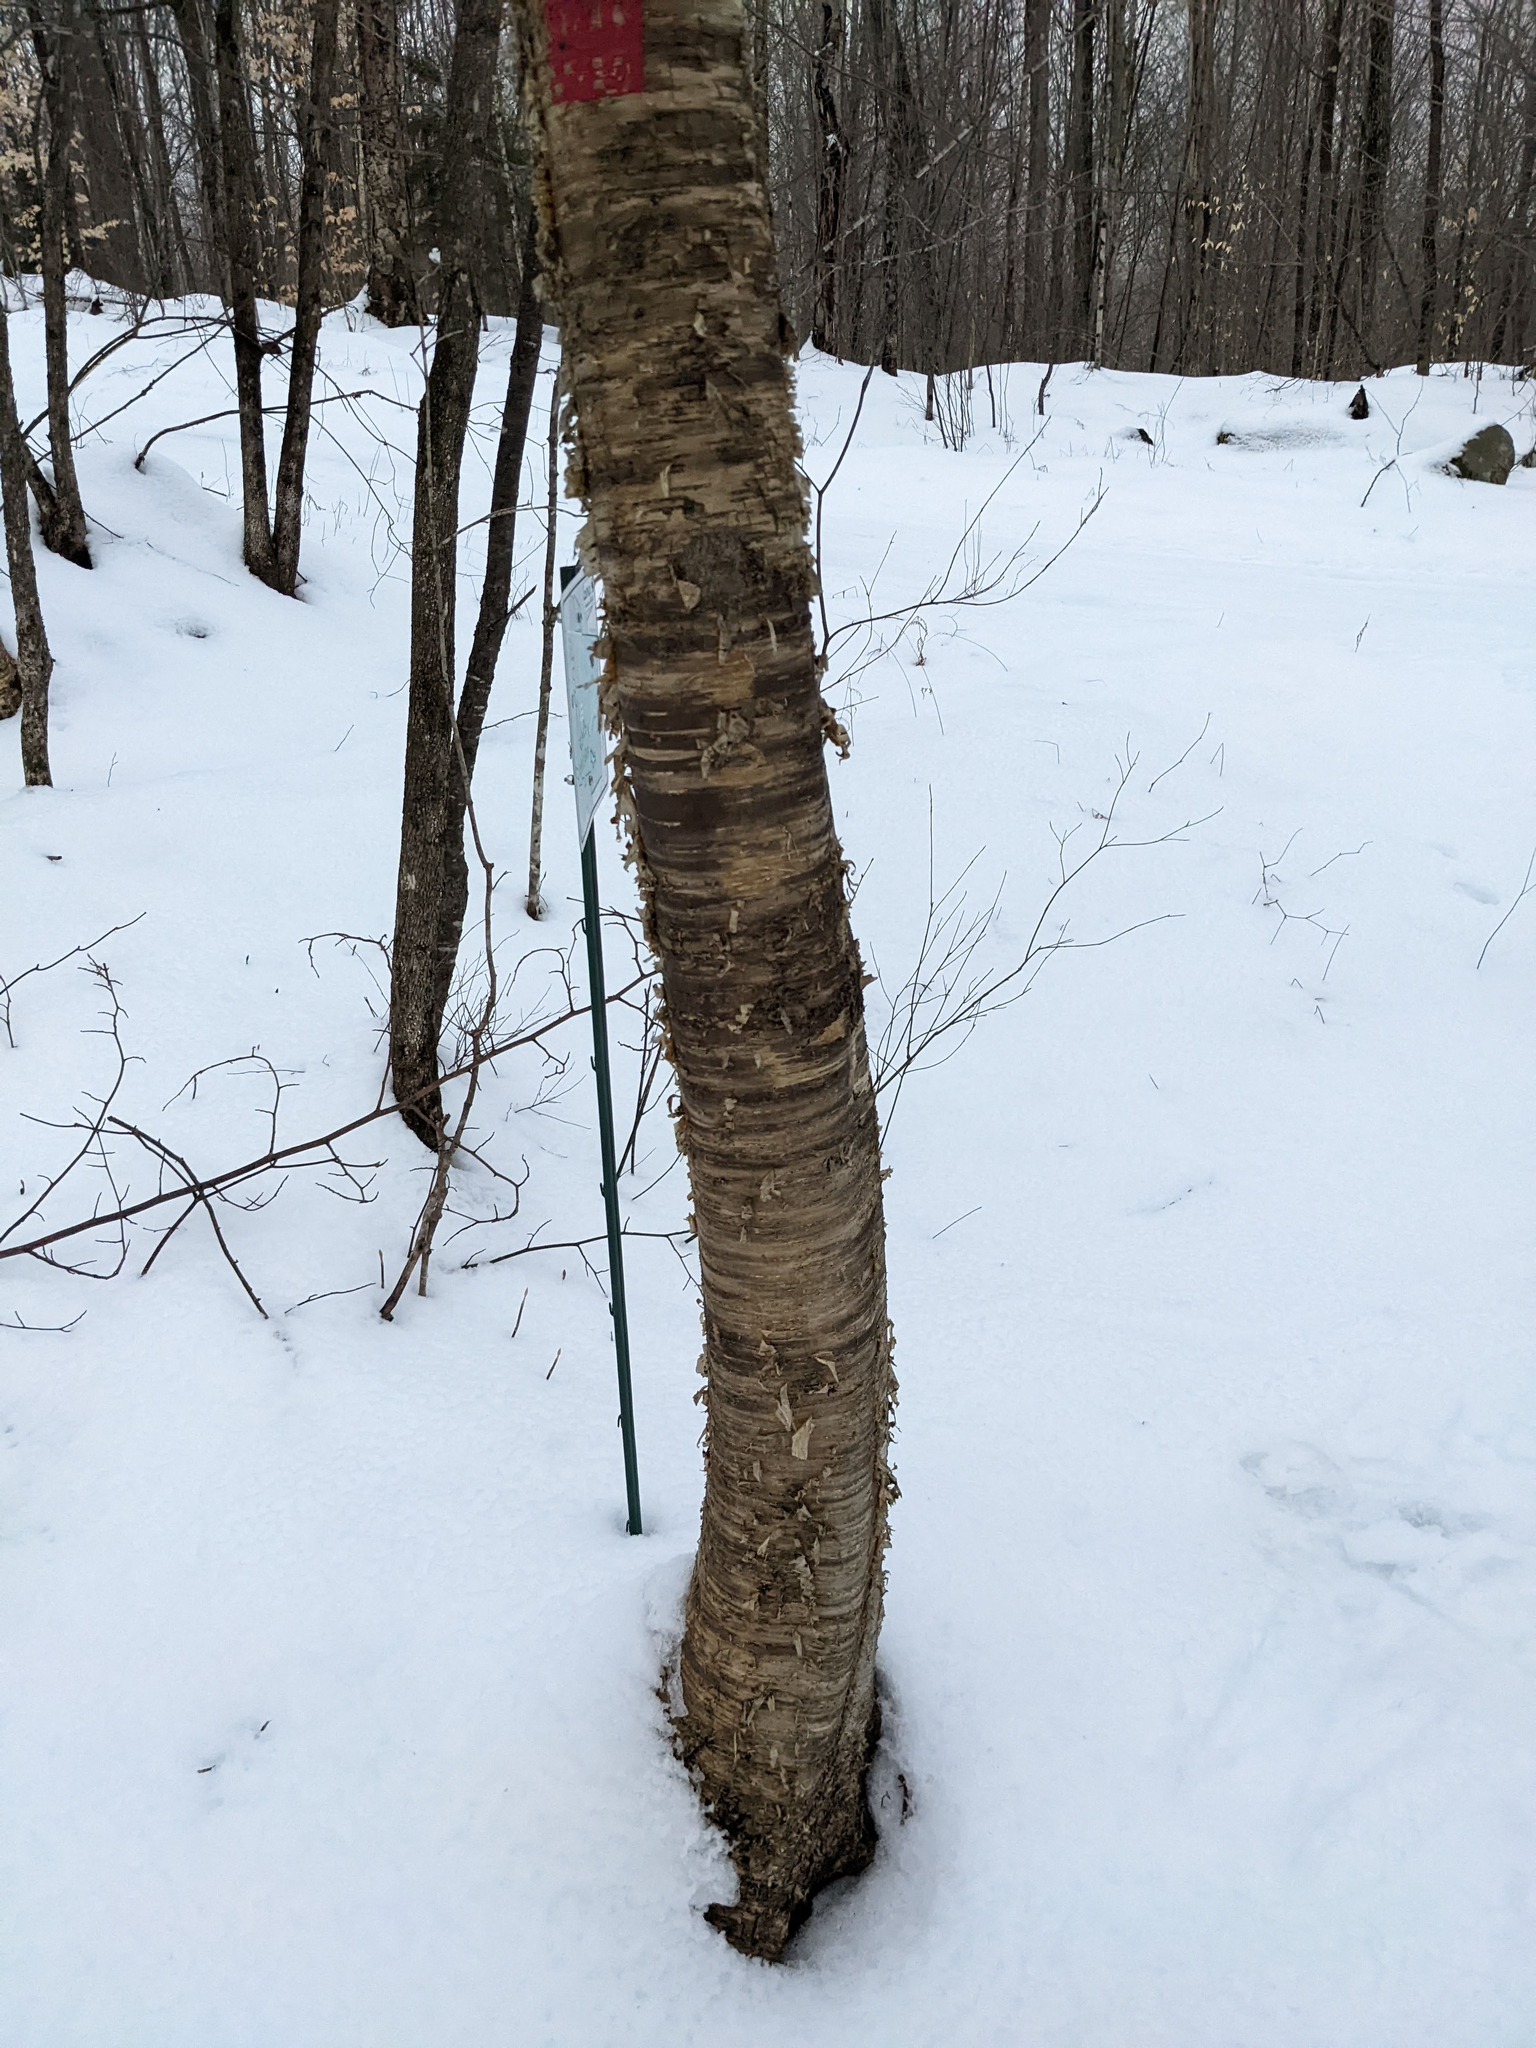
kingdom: Plantae
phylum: Tracheophyta
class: Magnoliopsida
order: Fagales
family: Betulaceae
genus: Betula
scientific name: Betula alleghaniensis
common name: Yellow birch
